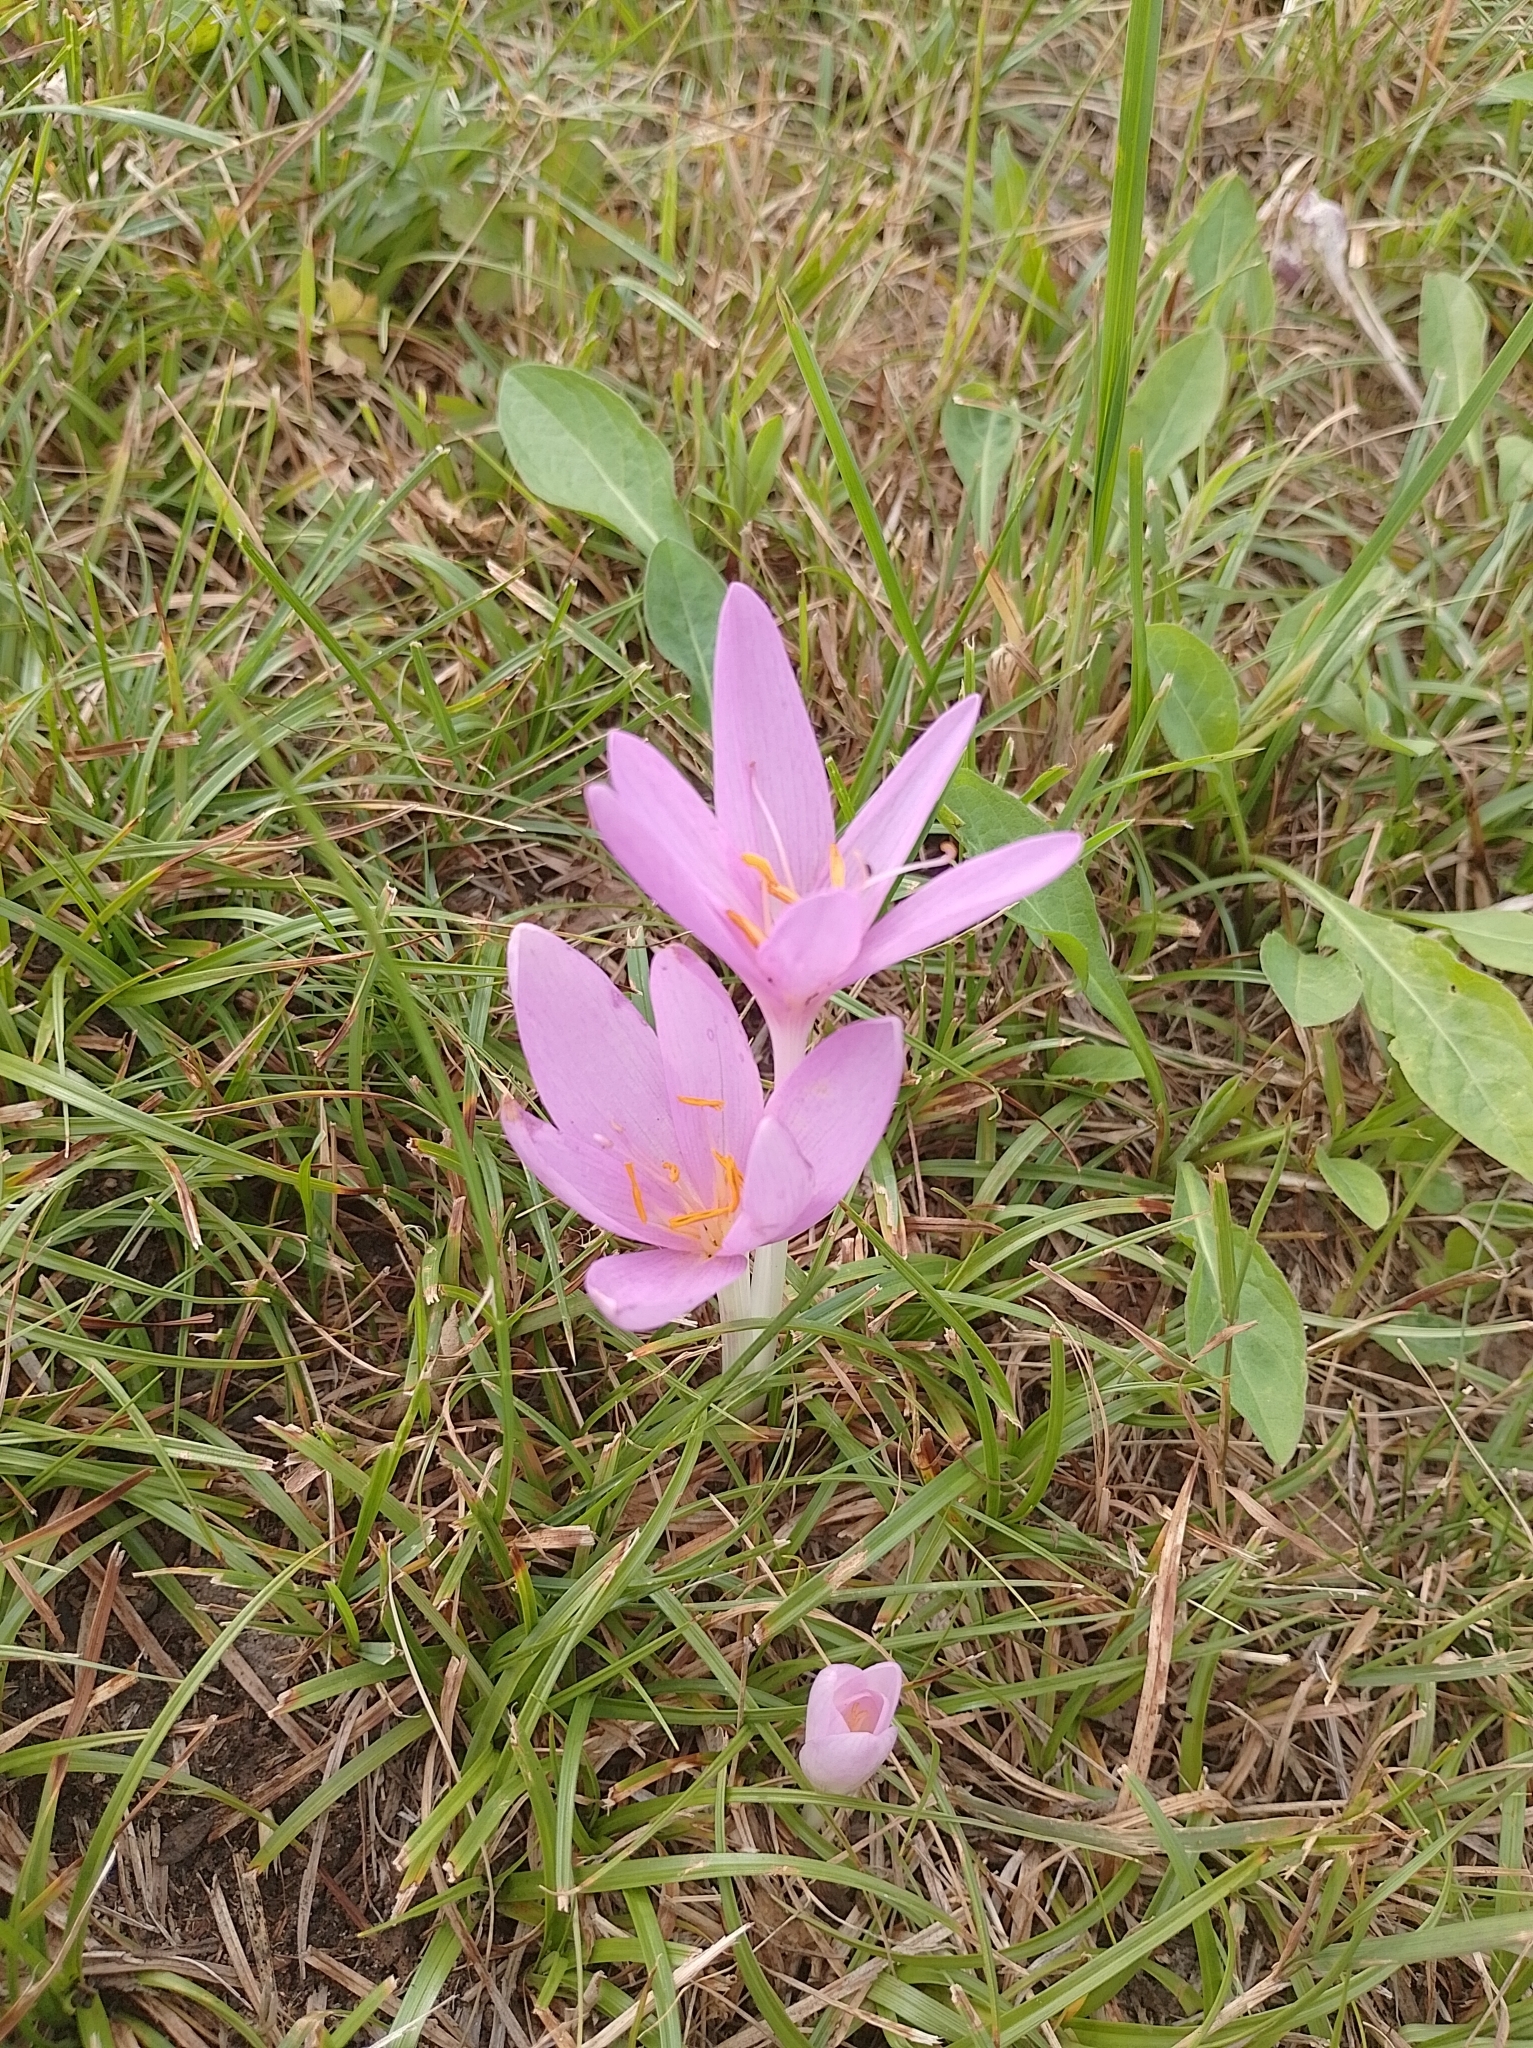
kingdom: Plantae
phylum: Tracheophyta
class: Liliopsida
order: Liliales
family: Colchicaceae
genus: Colchicum
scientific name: Colchicum autumnale
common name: Autumn crocus
